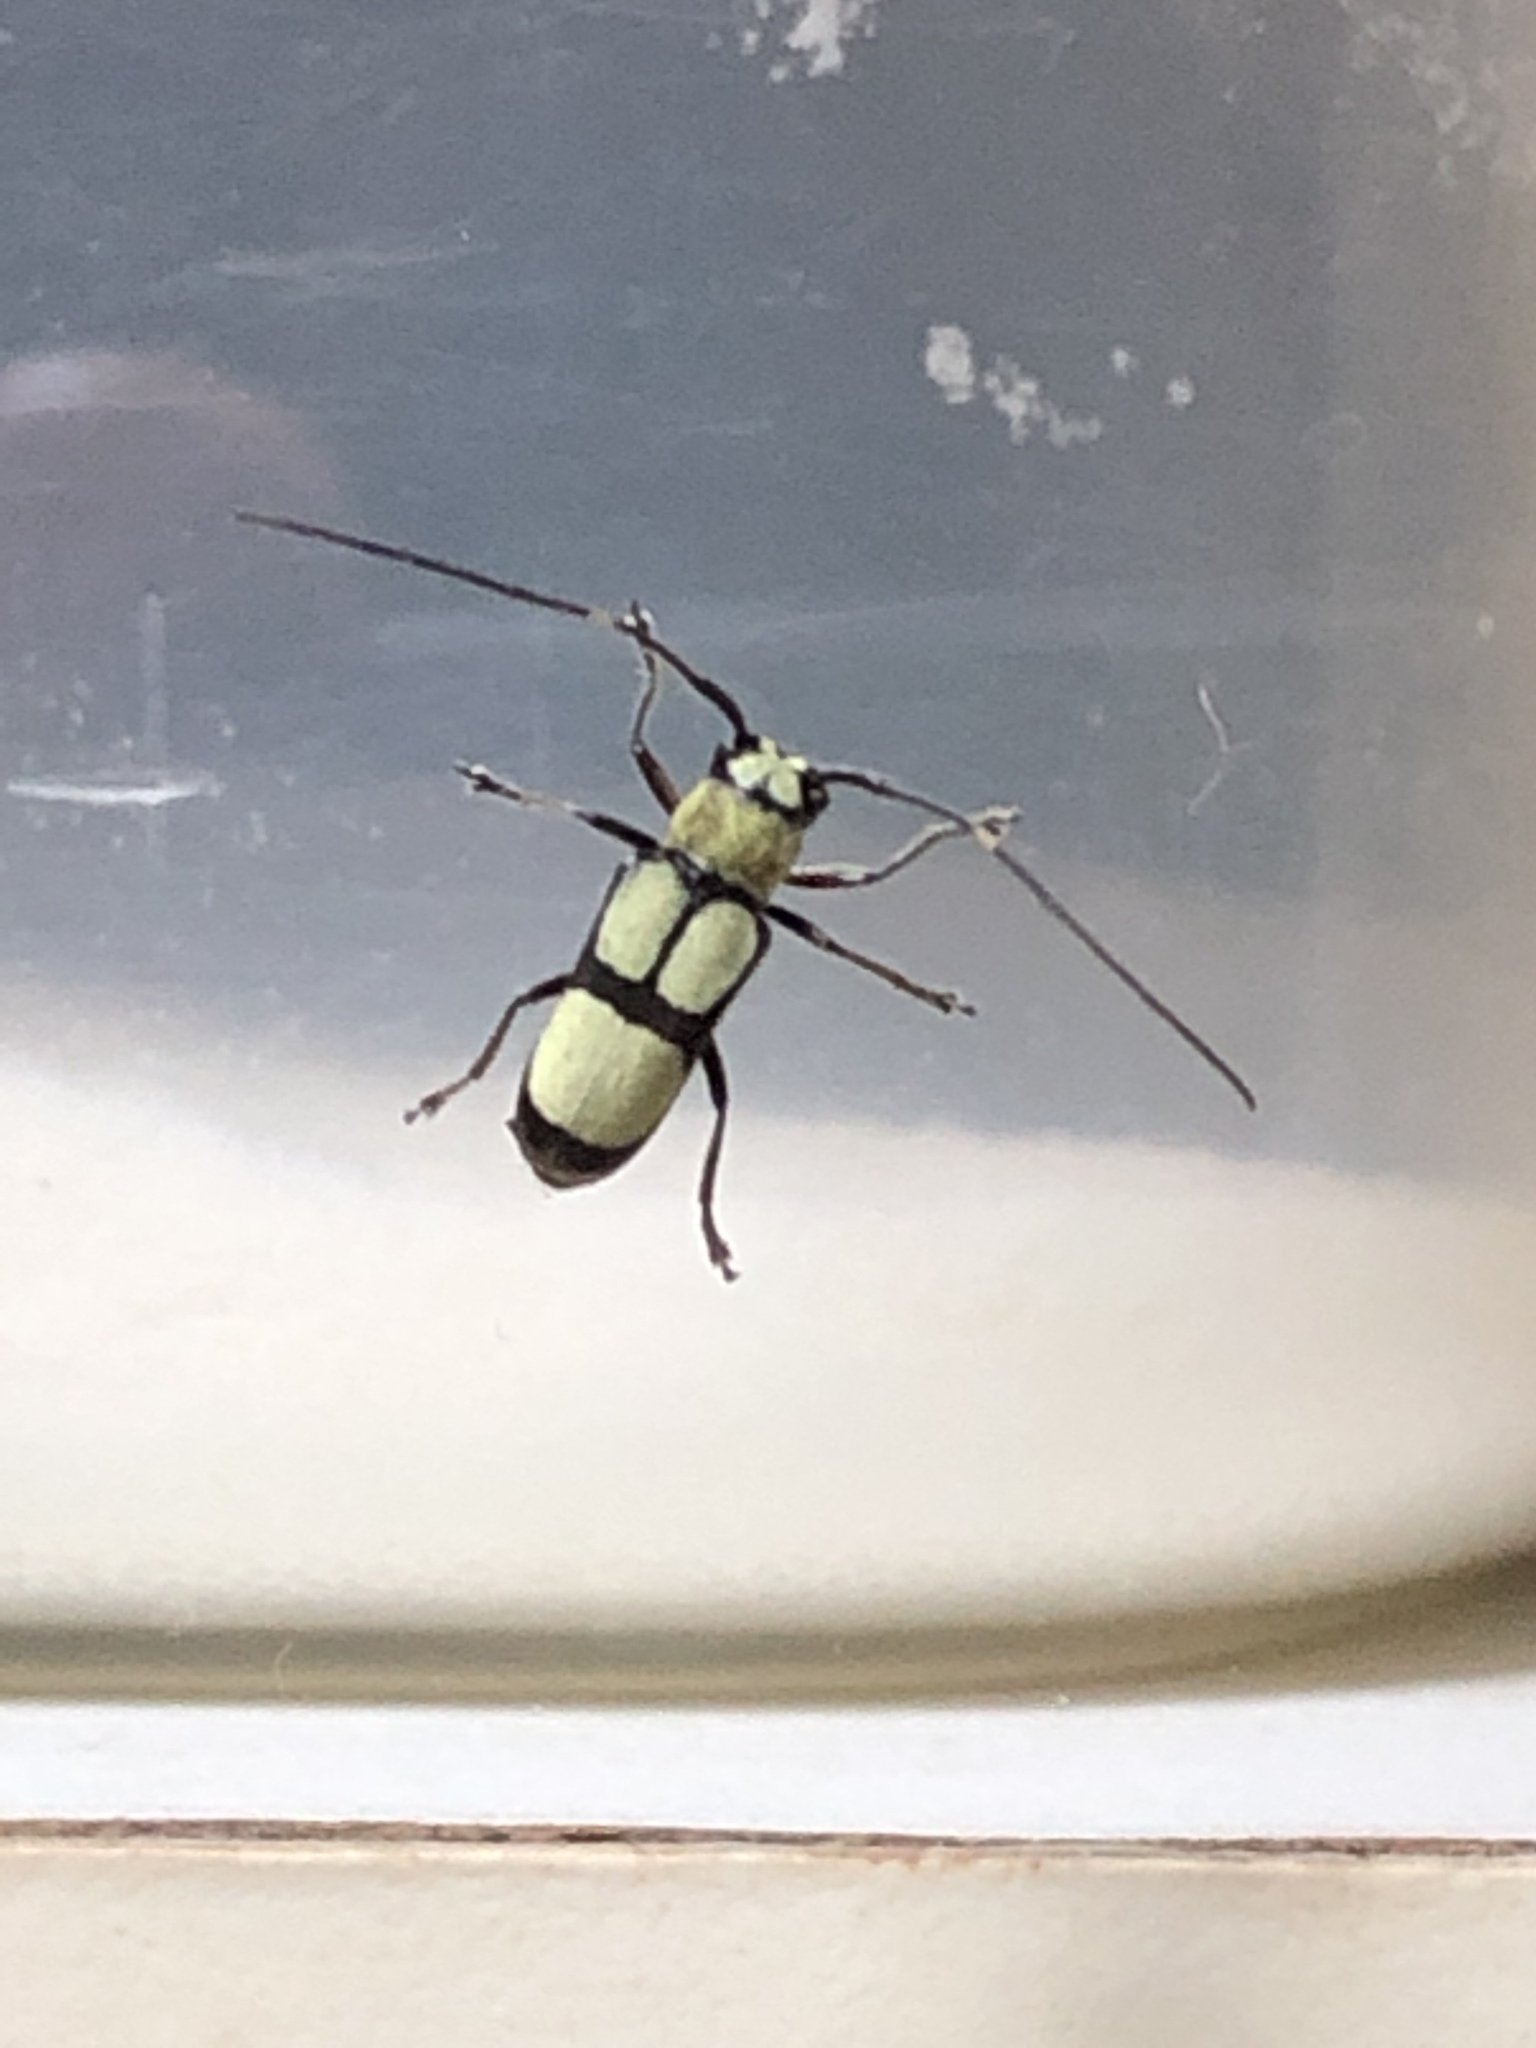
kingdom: Animalia
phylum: Arthropoda
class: Insecta
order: Coleoptera
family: Cerambycidae
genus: Adesmus
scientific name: Adesmus clathratus
